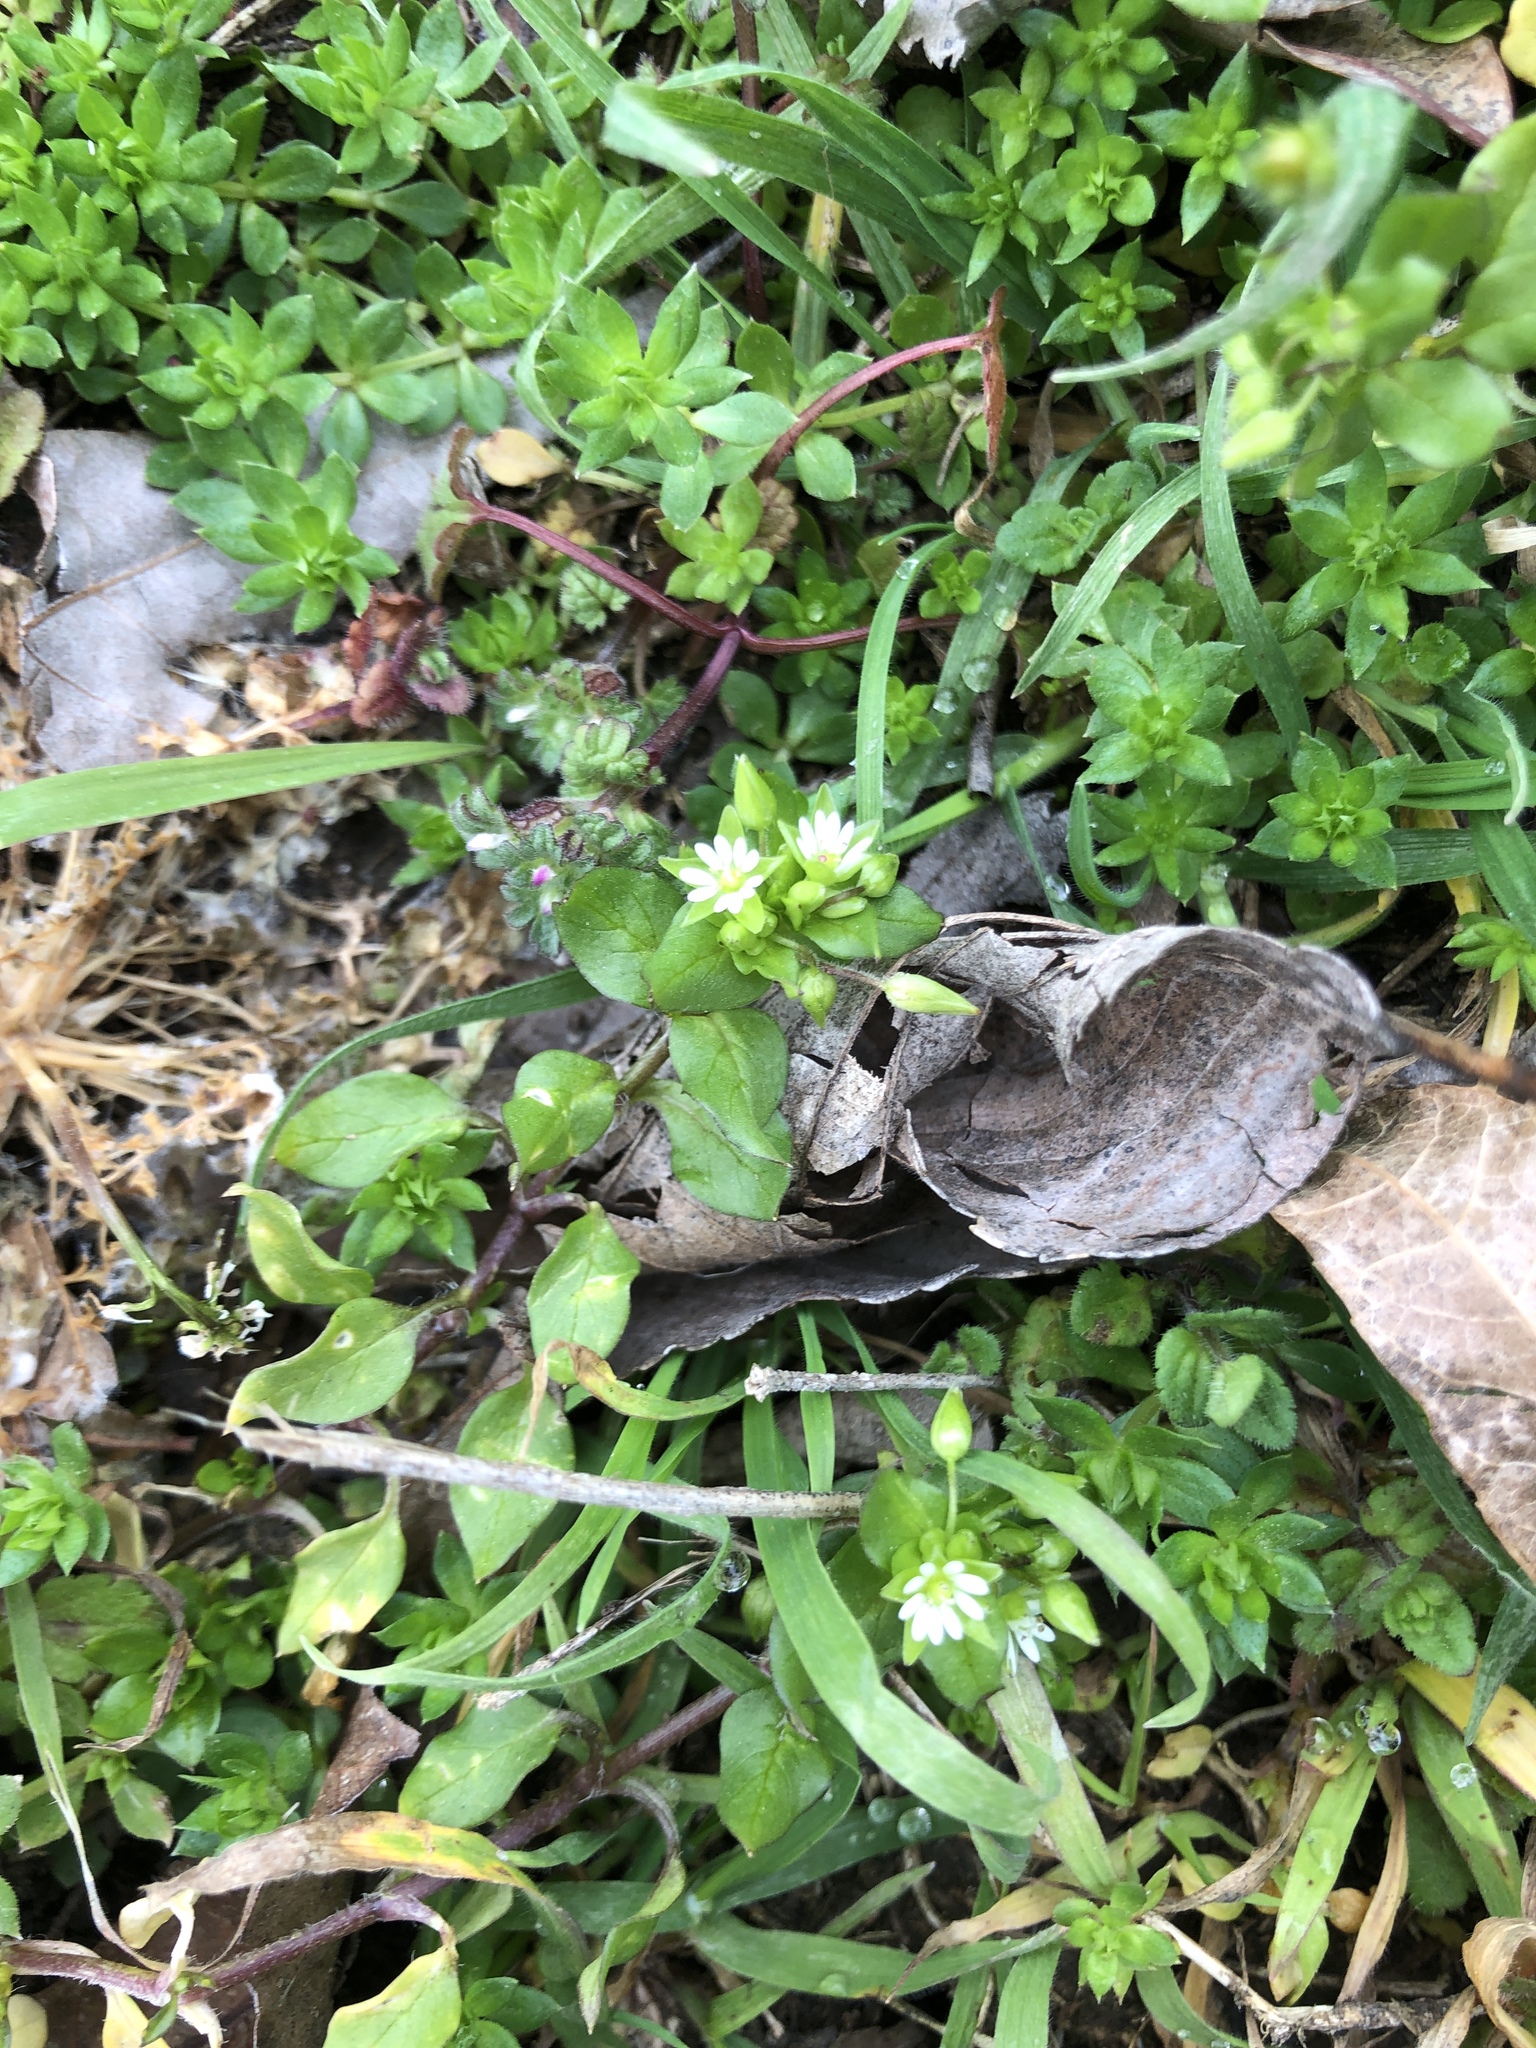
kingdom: Plantae
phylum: Tracheophyta
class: Magnoliopsida
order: Caryophyllales
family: Caryophyllaceae
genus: Stellaria
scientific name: Stellaria media
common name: Common chickweed
